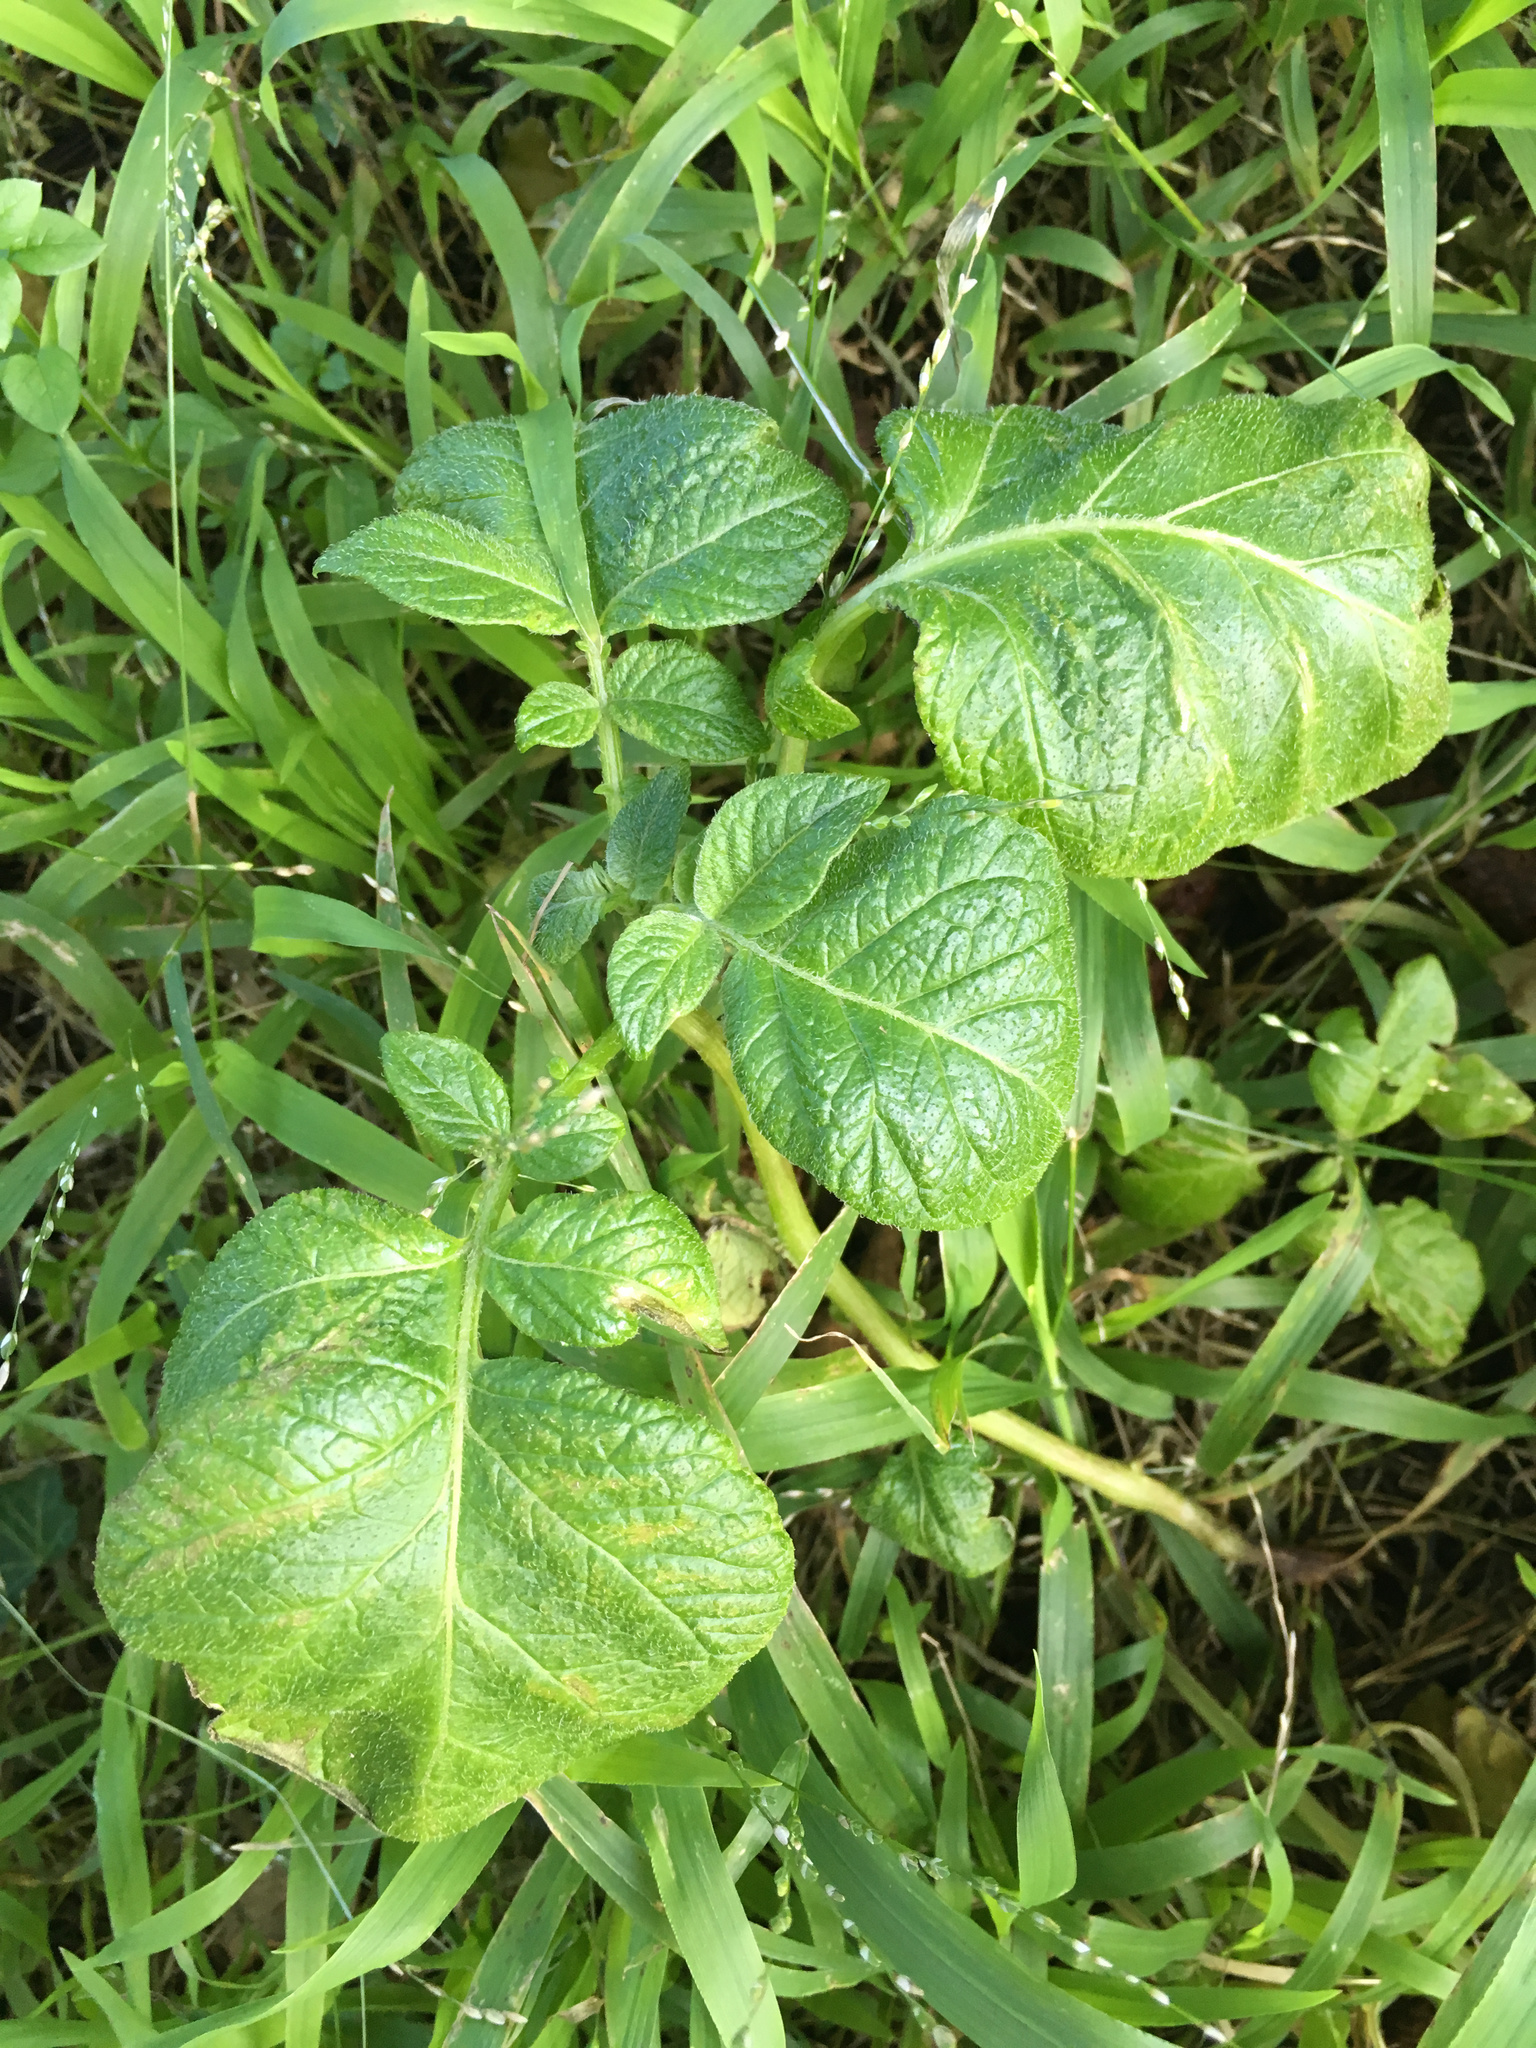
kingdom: Plantae
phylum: Tracheophyta
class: Magnoliopsida
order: Solanales
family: Solanaceae
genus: Solanum
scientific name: Solanum tuberosum
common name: Potato
